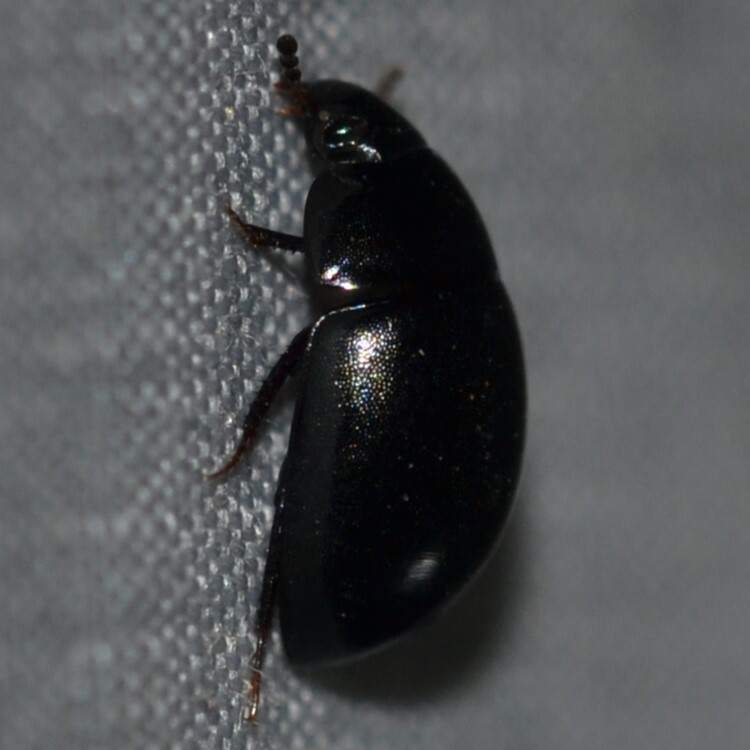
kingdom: Animalia
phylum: Arthropoda
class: Insecta
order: Coleoptera
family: Hydrophilidae
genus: Coelostoma
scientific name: Coelostoma
